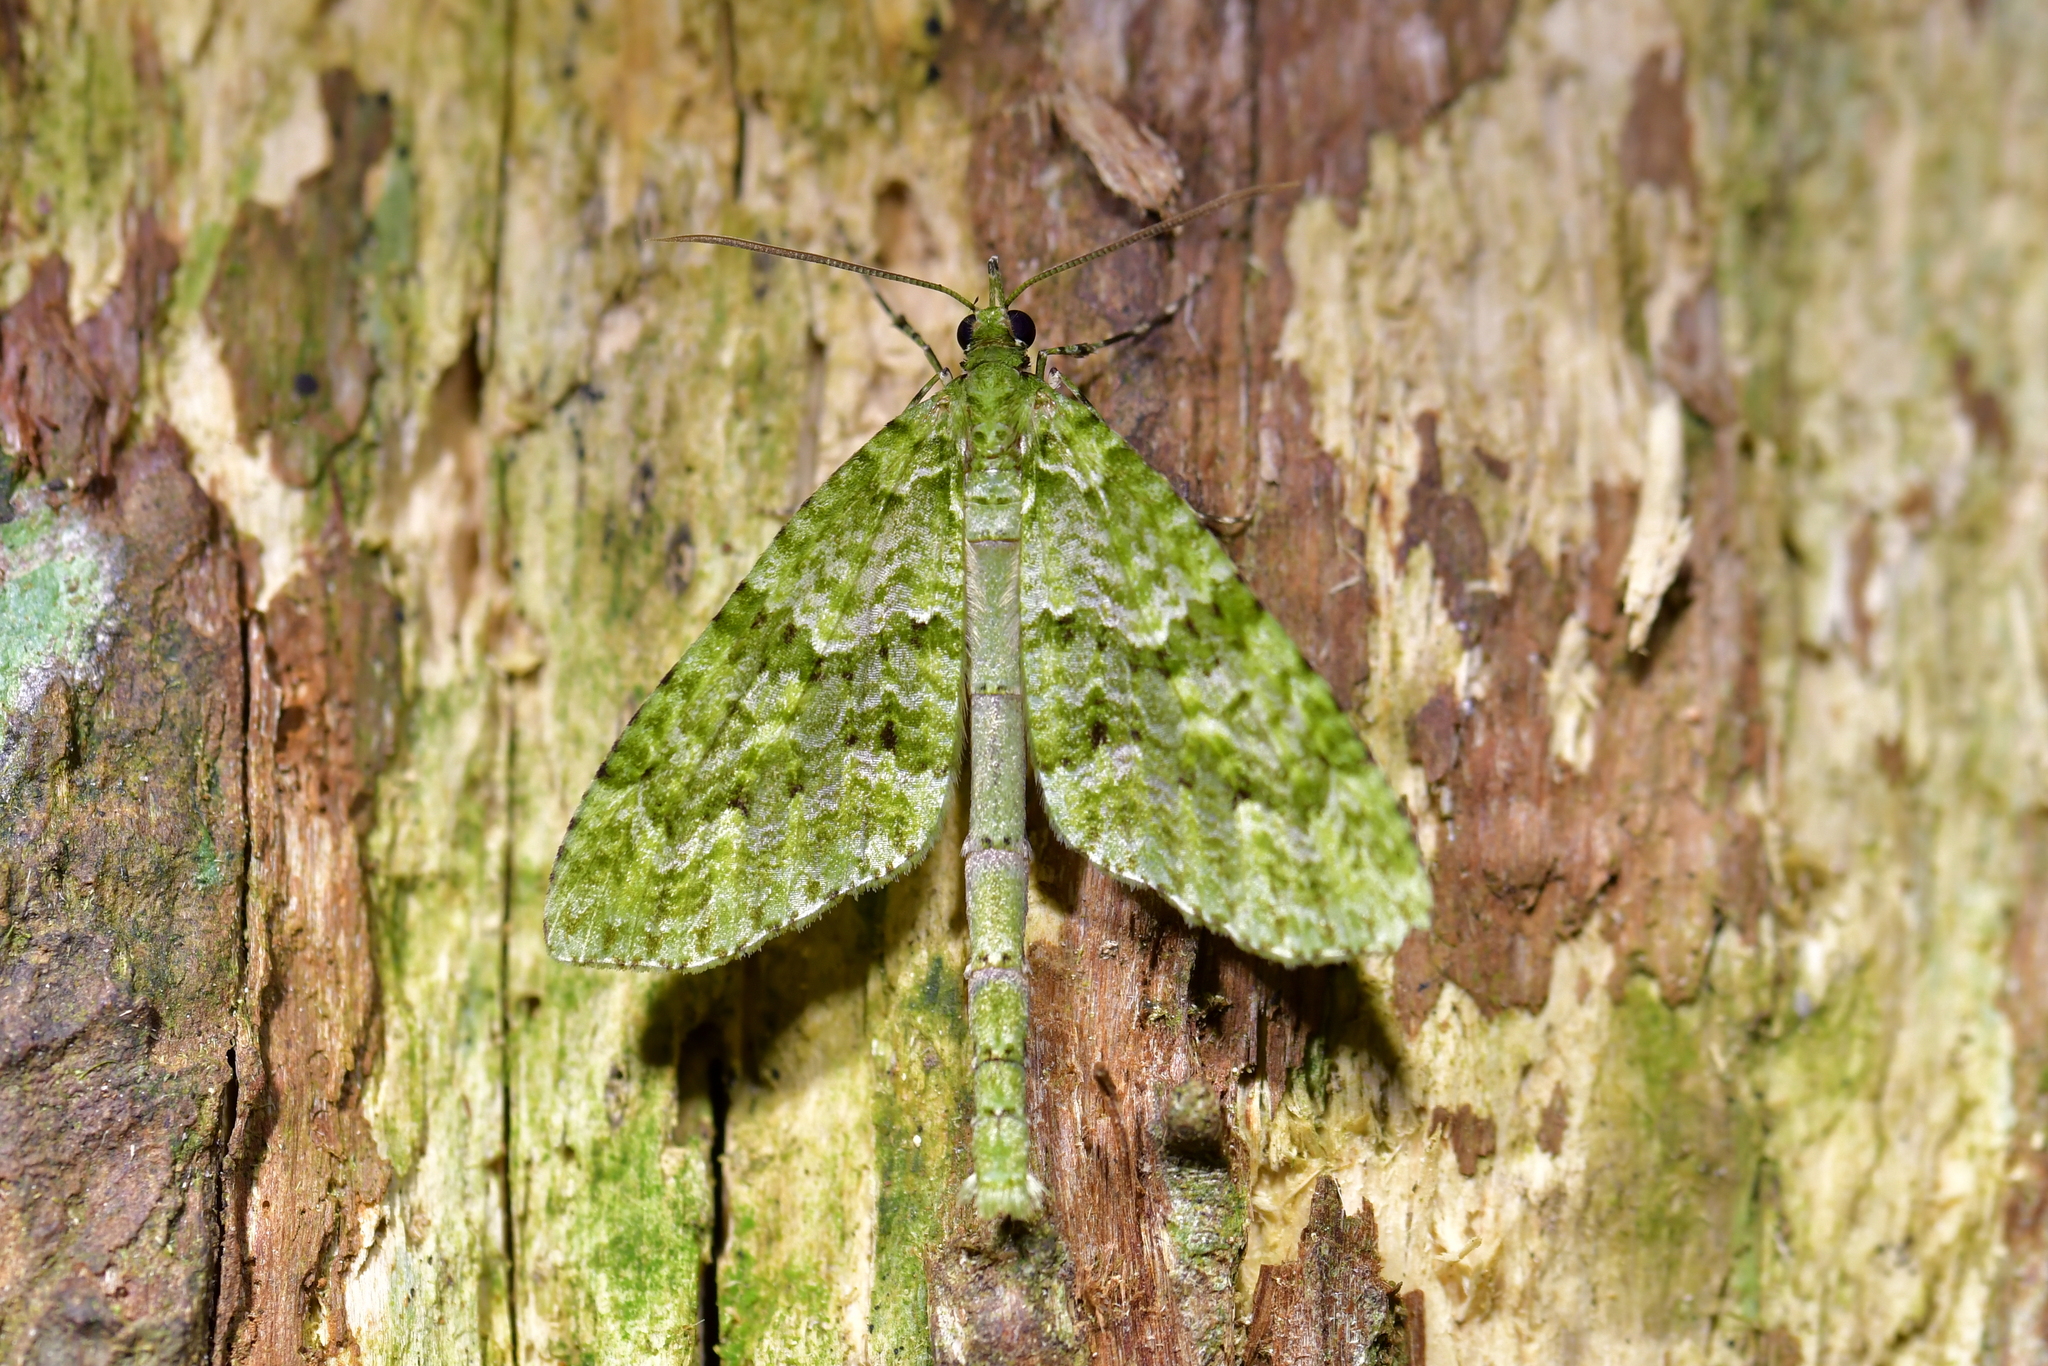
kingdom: Animalia
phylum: Arthropoda
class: Insecta
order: Lepidoptera
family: Geometridae
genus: Tatosoma
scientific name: Tatosoma tipulata
